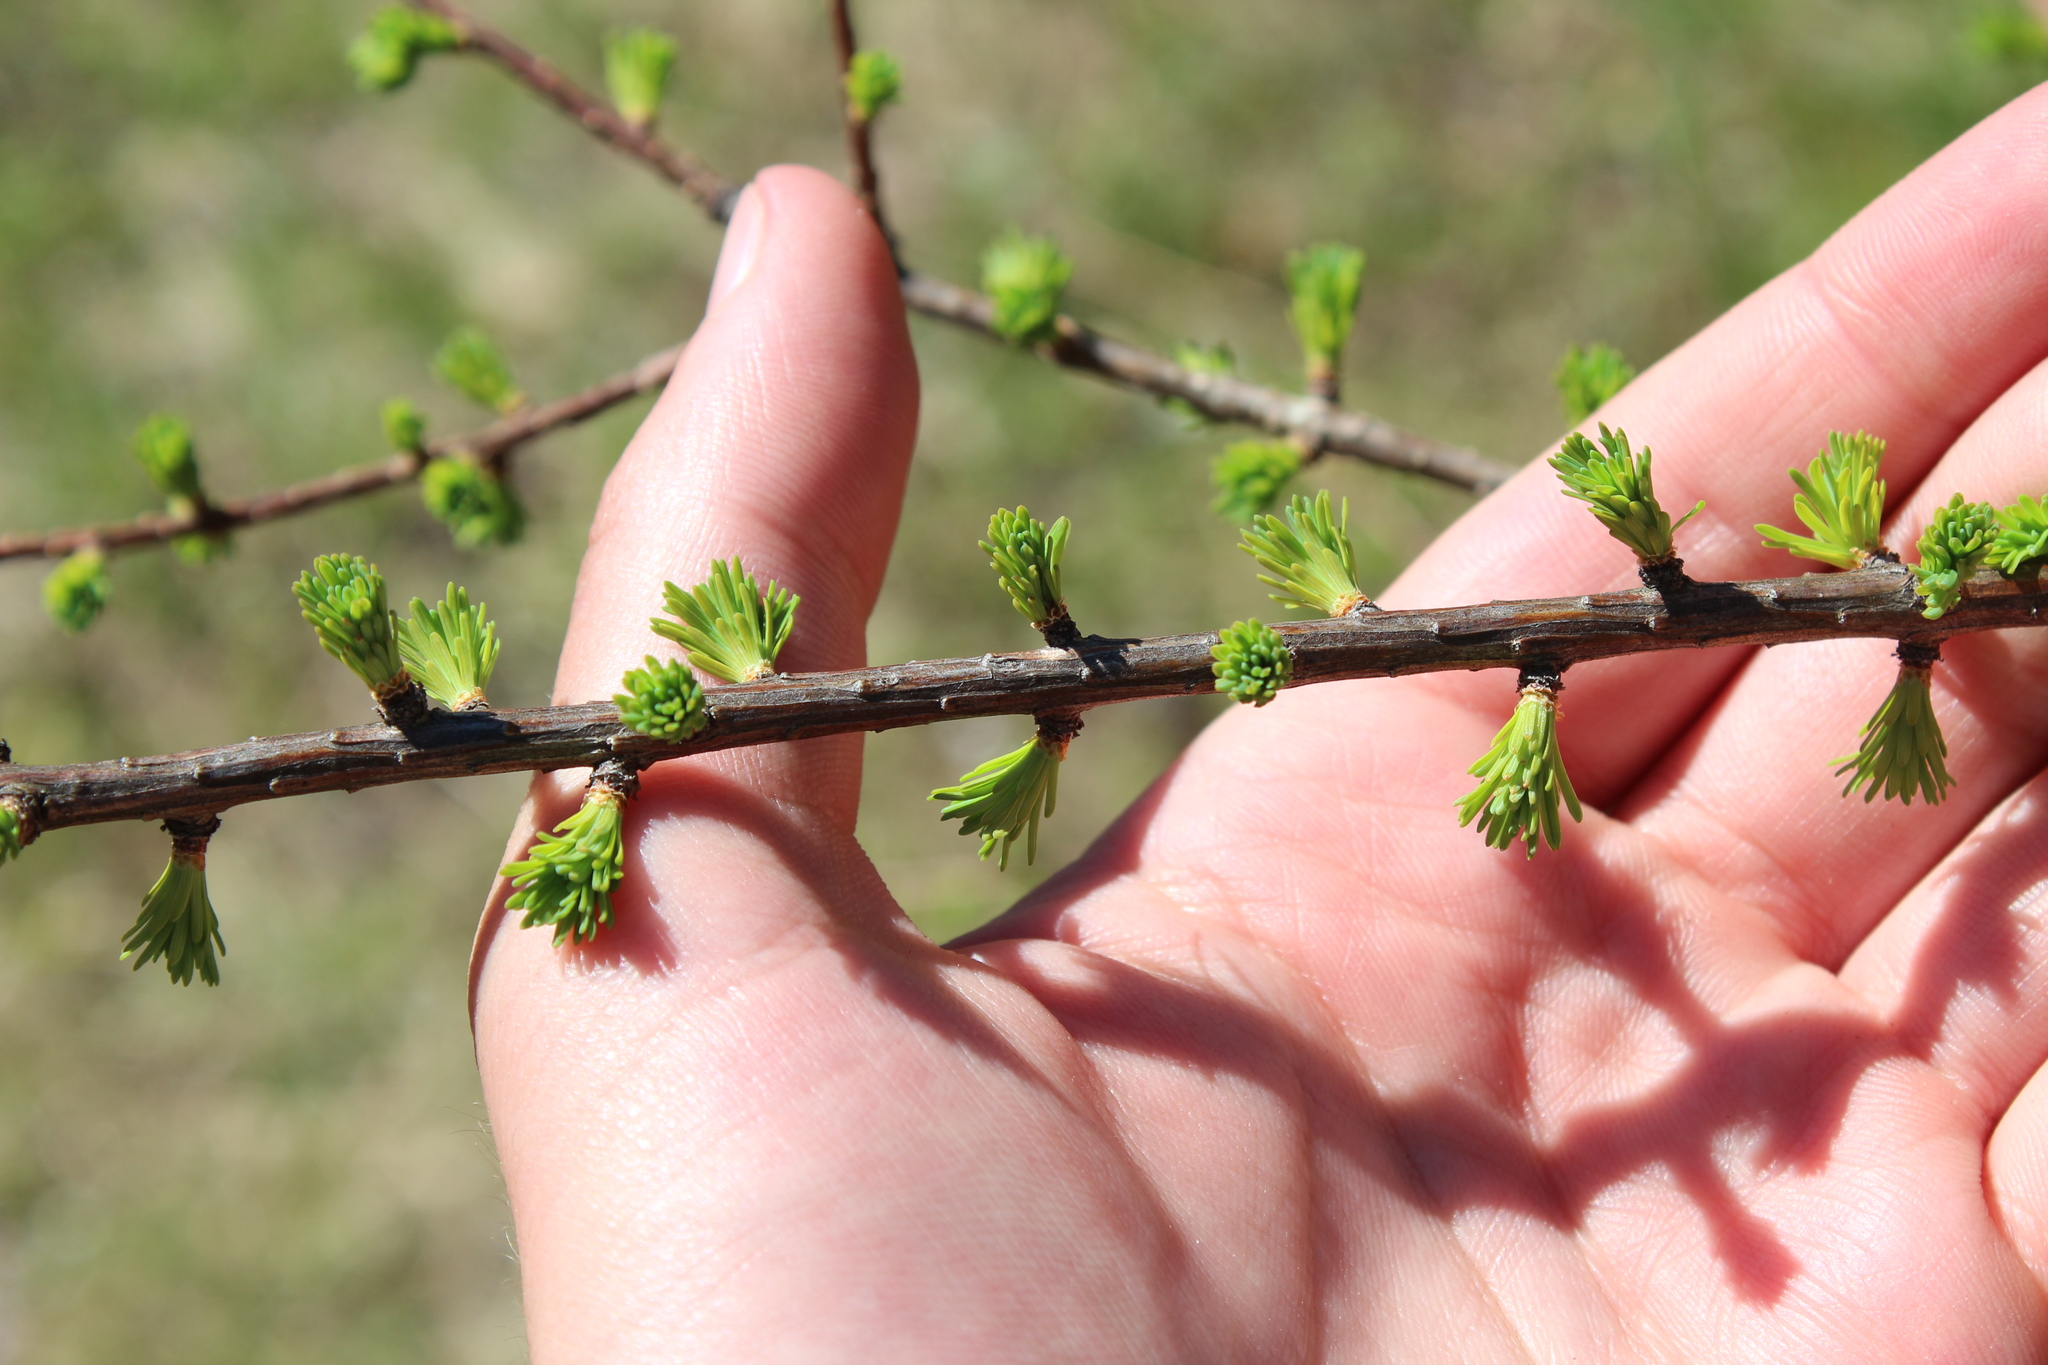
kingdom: Plantae
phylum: Tracheophyta
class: Pinopsida
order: Pinales
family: Pinaceae
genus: Larix
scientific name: Larix laricina
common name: American larch
